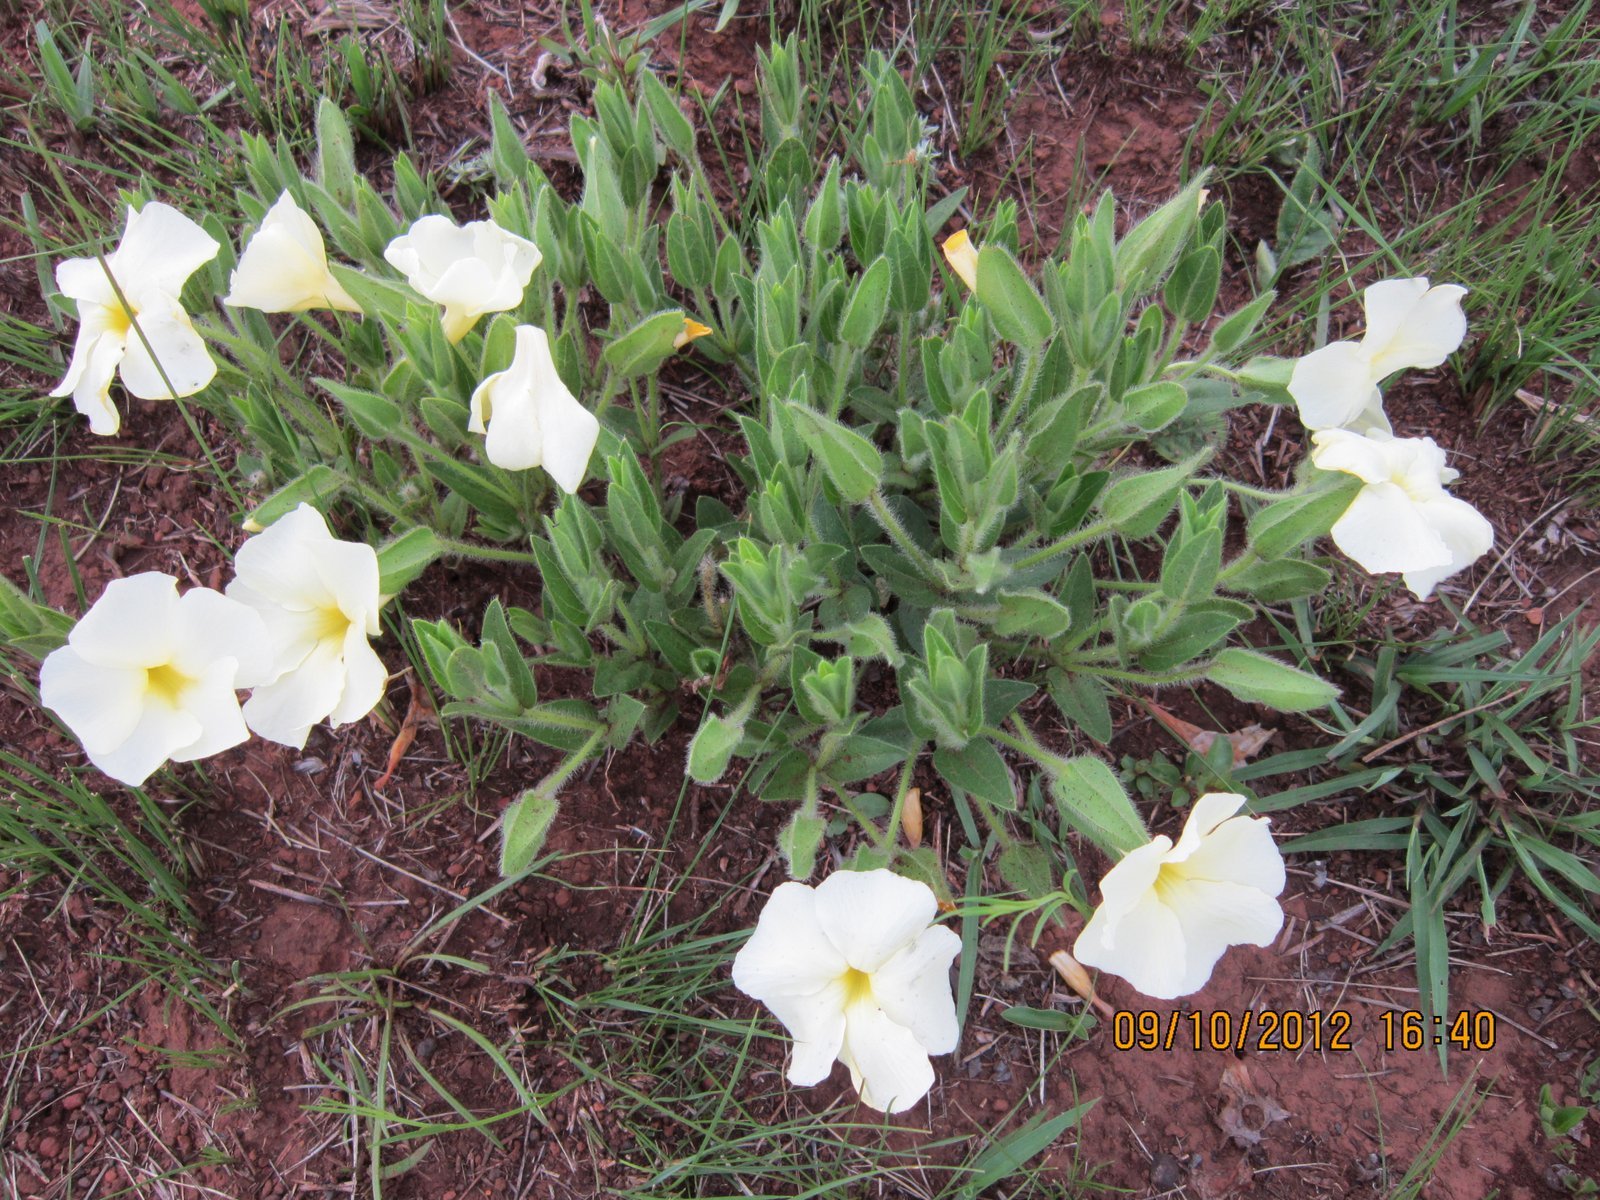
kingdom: Plantae
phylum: Tracheophyta
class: Magnoliopsida
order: Lamiales
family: Acanthaceae
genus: Thunbergia
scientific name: Thunbergia atriplicifolia
